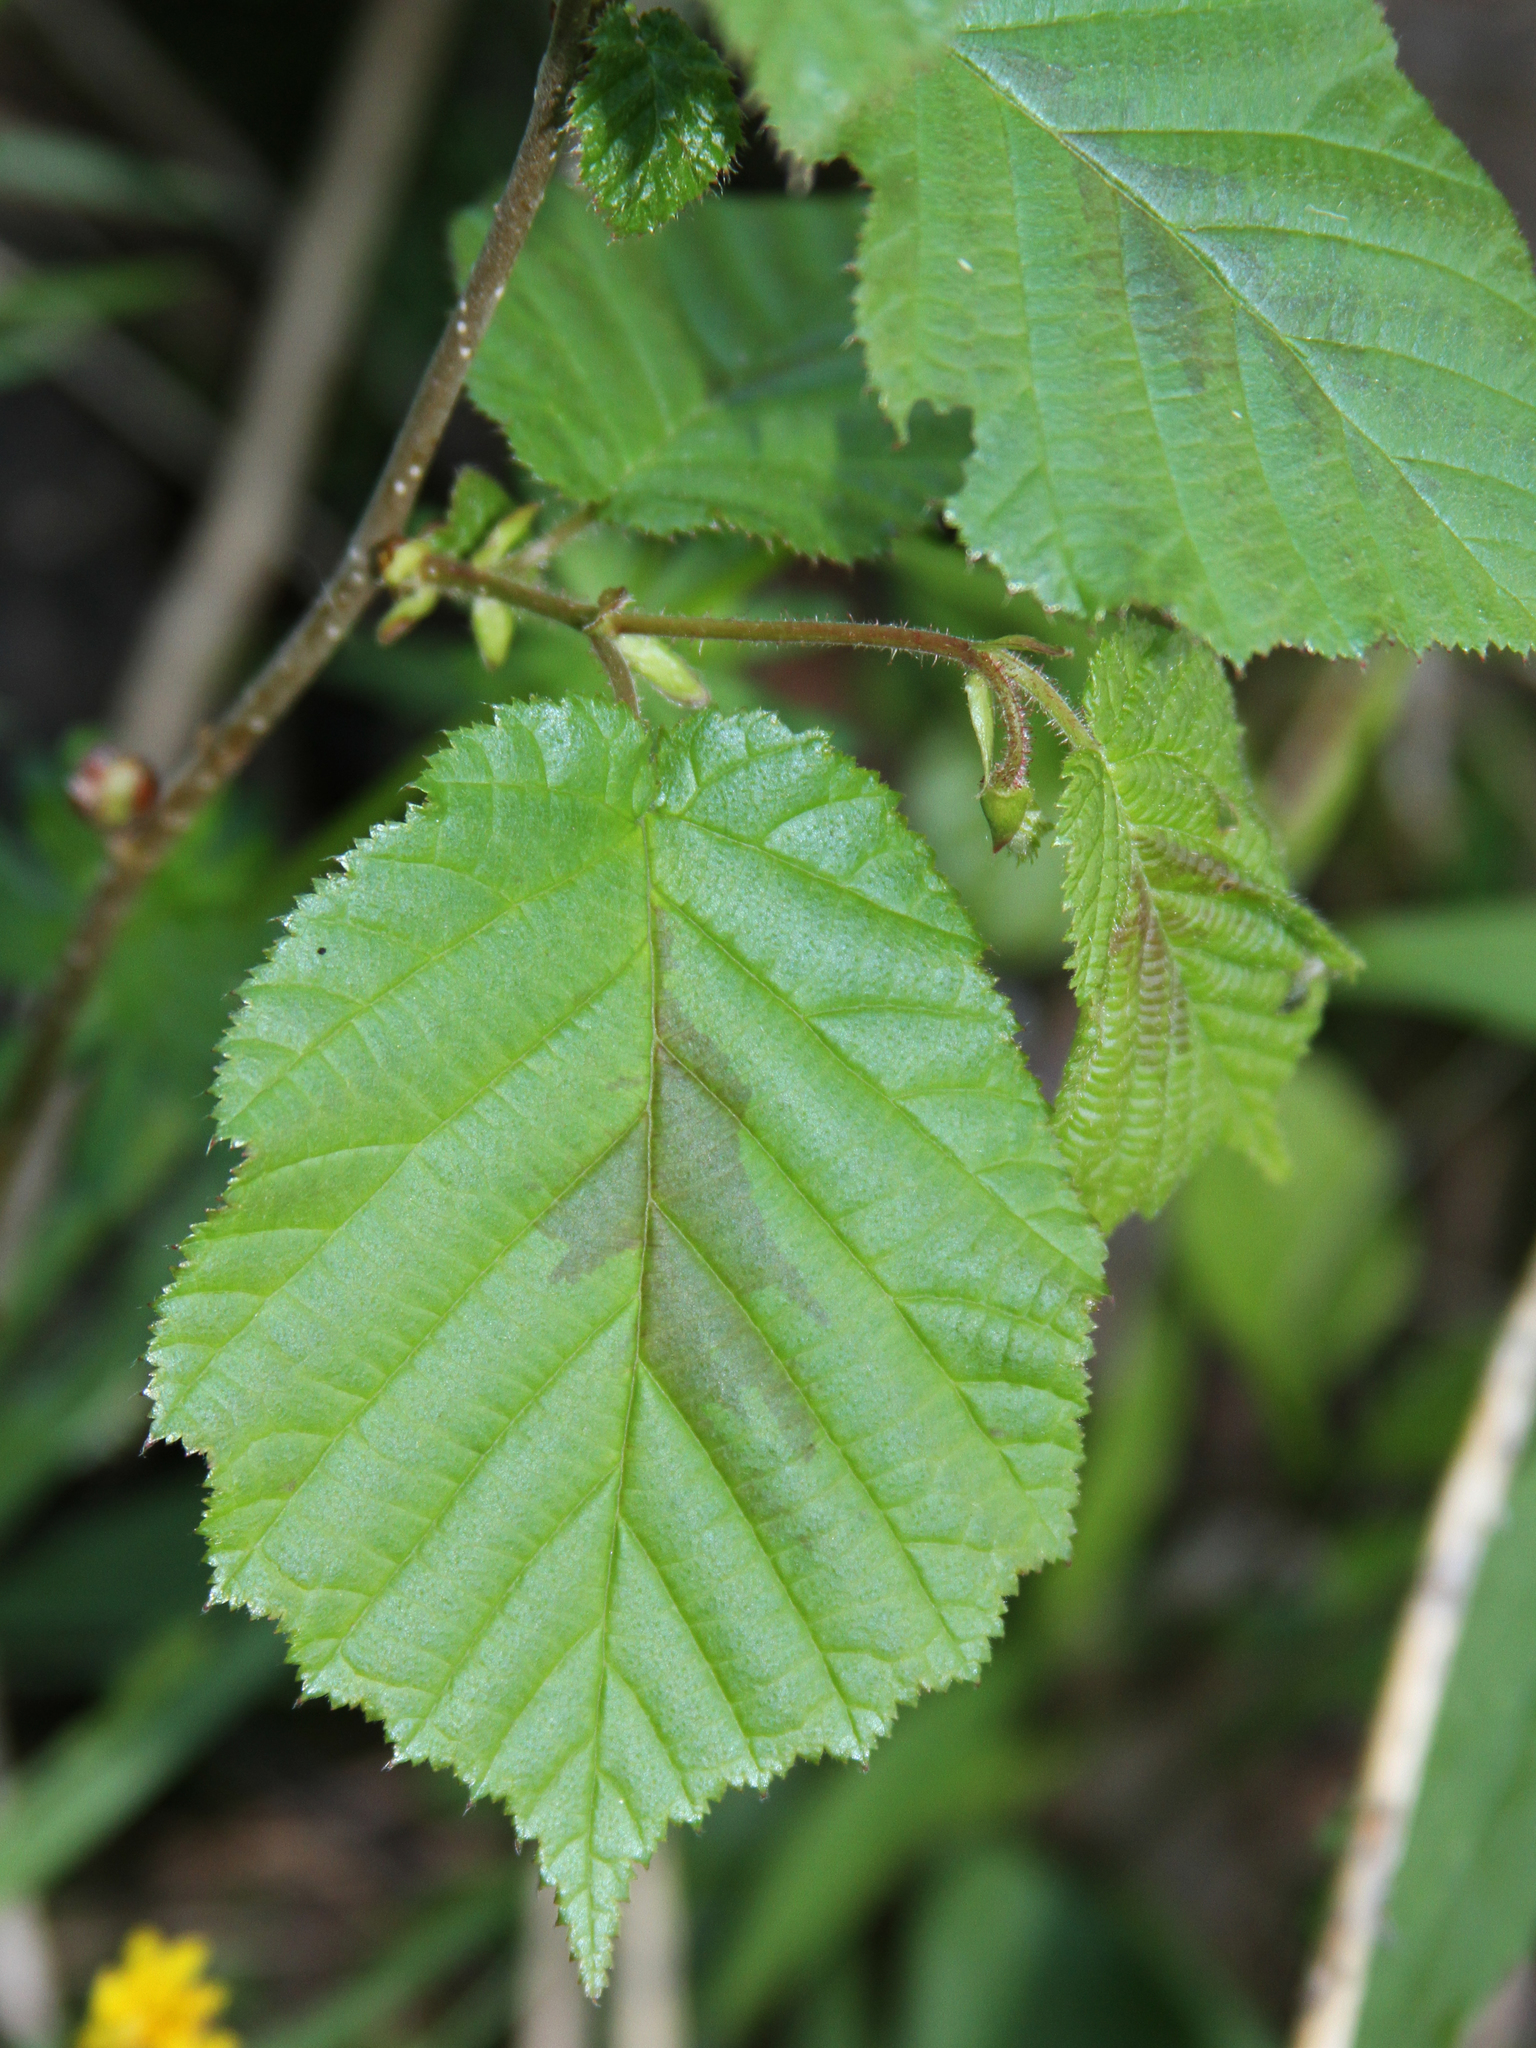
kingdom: Plantae
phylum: Tracheophyta
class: Magnoliopsida
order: Fagales
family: Betulaceae
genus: Corylus
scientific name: Corylus americana
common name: American hazel
